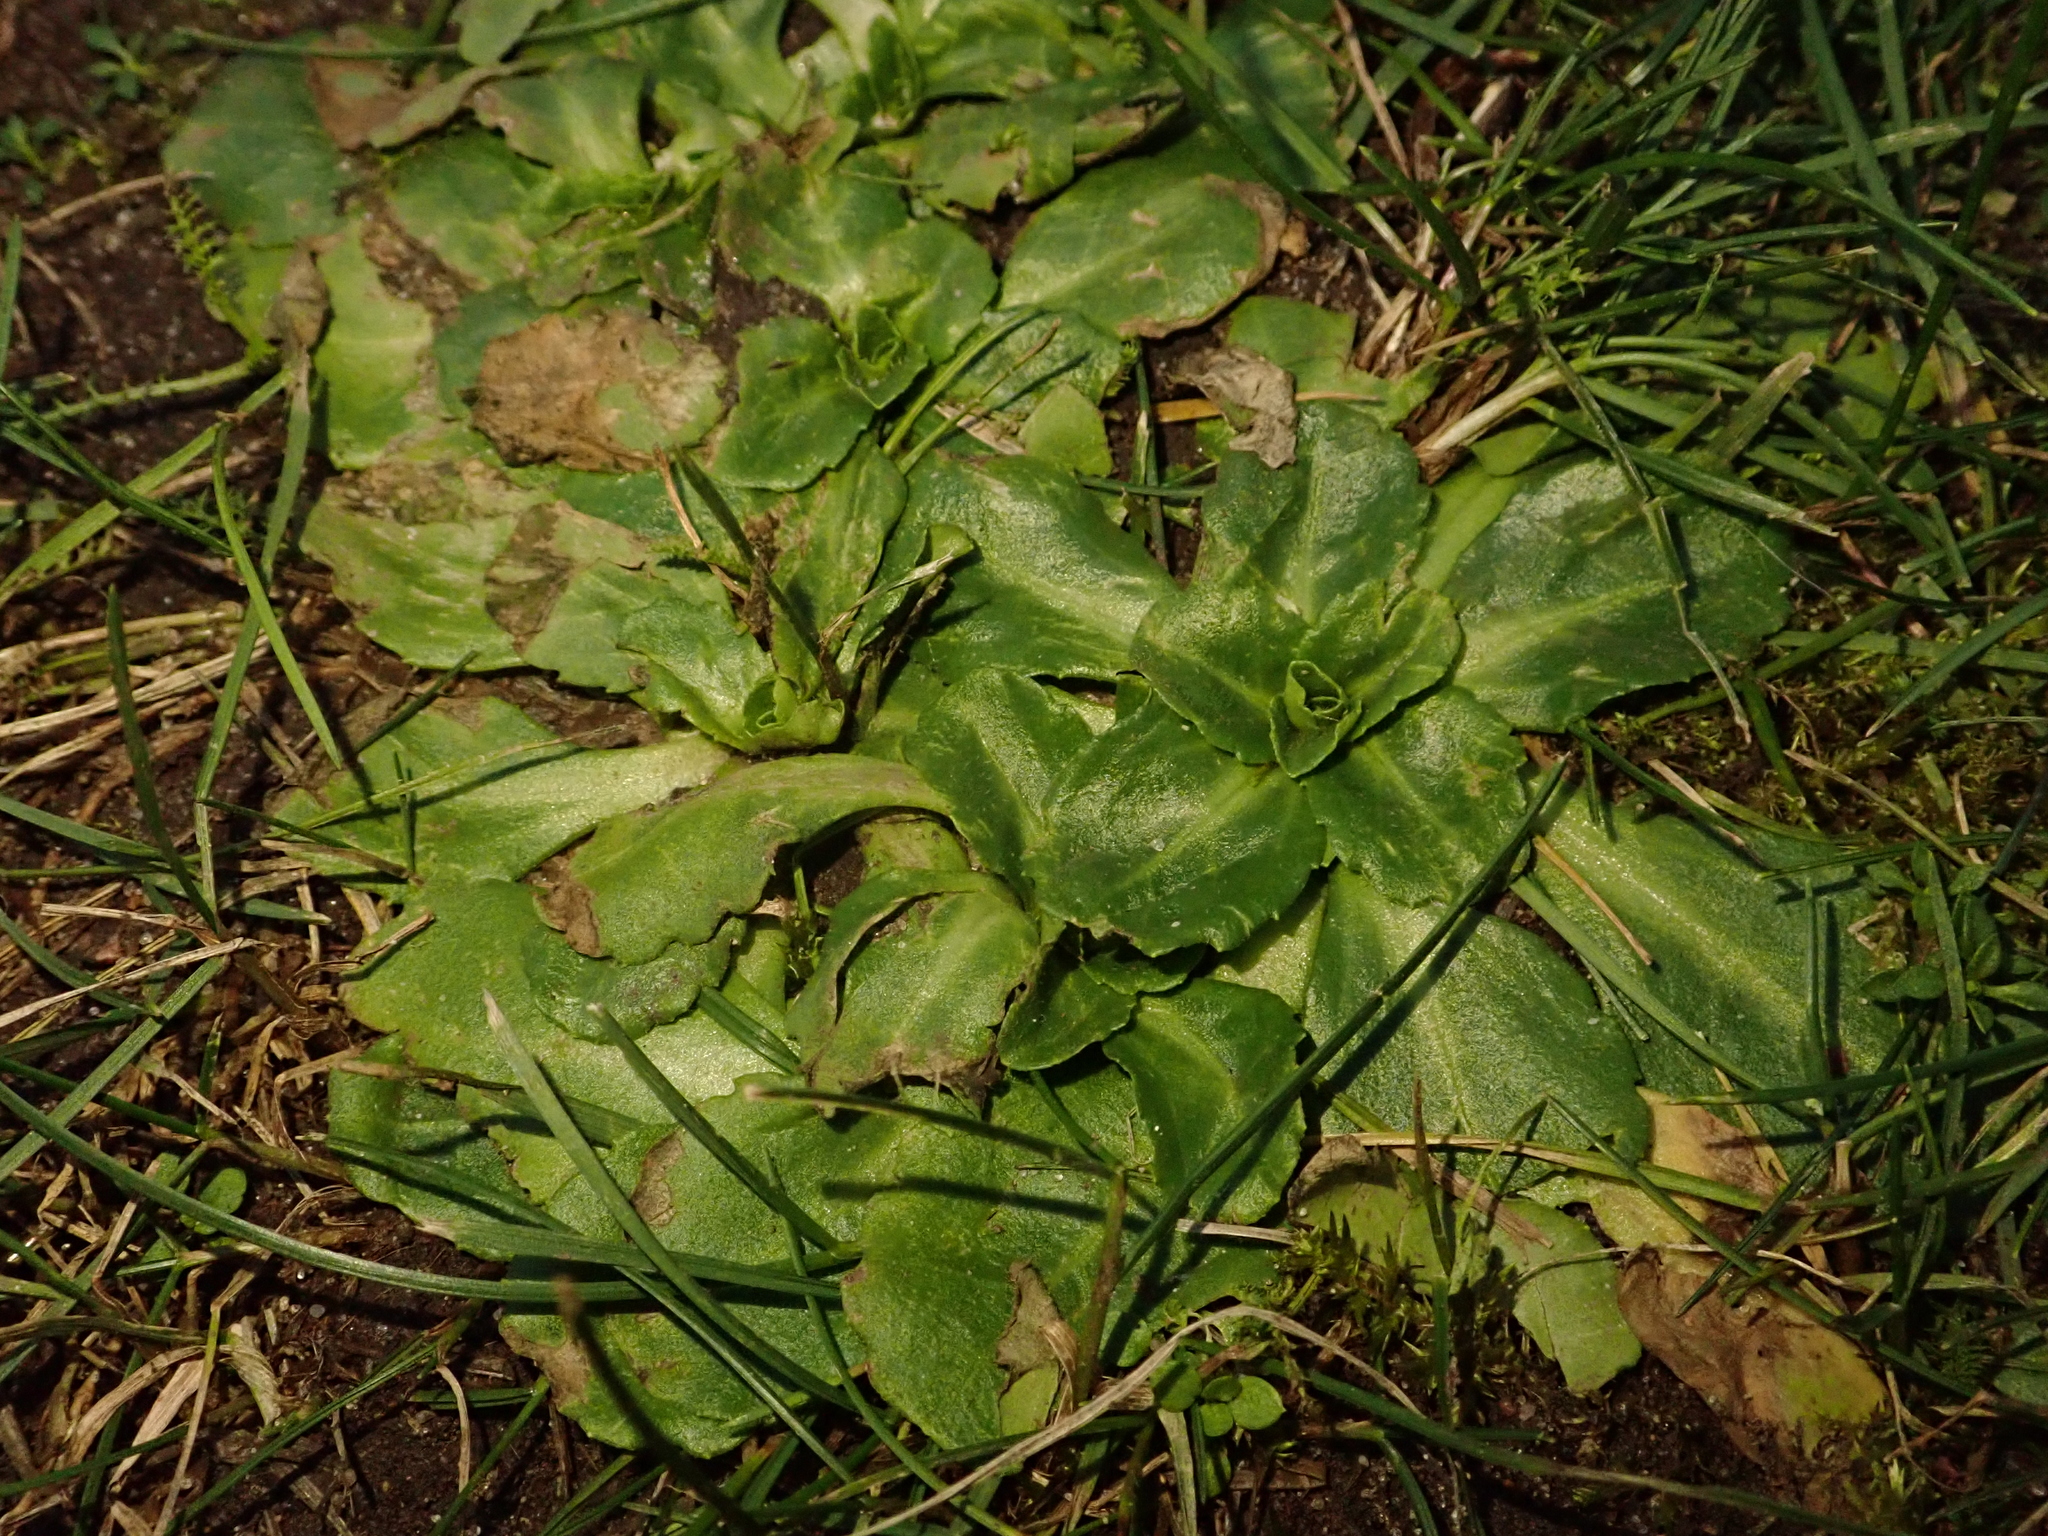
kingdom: Plantae
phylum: Tracheophyta
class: Magnoliopsida
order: Asterales
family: Asteraceae
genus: Bellis
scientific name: Bellis perennis
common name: Lawndaisy
